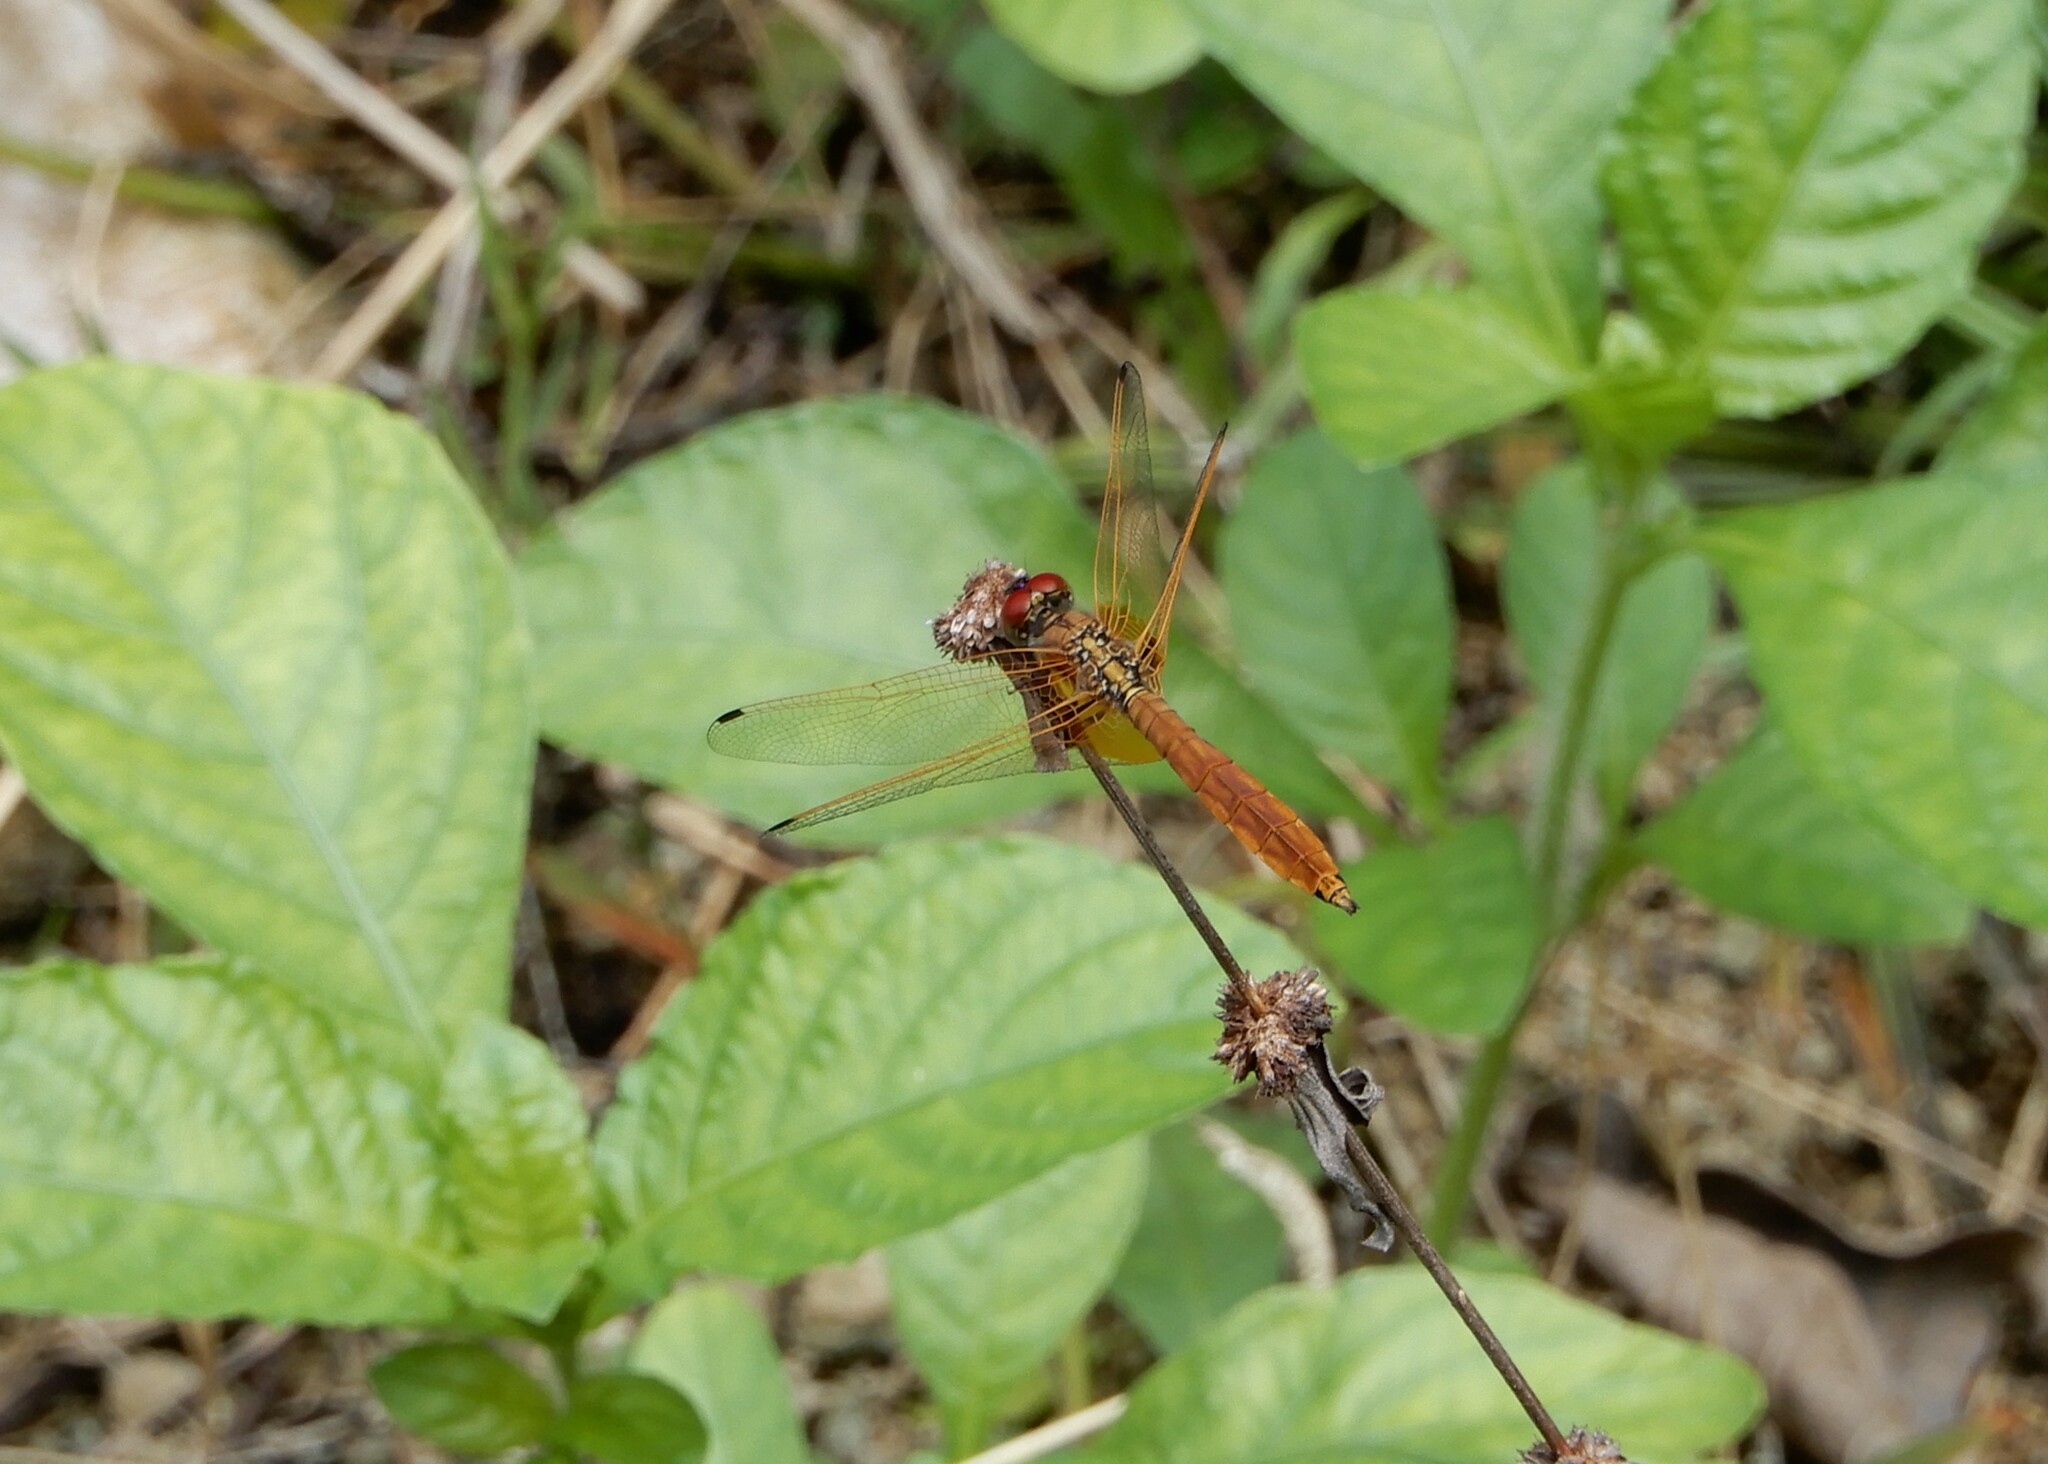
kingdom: Animalia
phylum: Arthropoda
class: Insecta
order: Odonata
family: Libellulidae
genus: Trithemis
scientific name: Trithemis aurora
